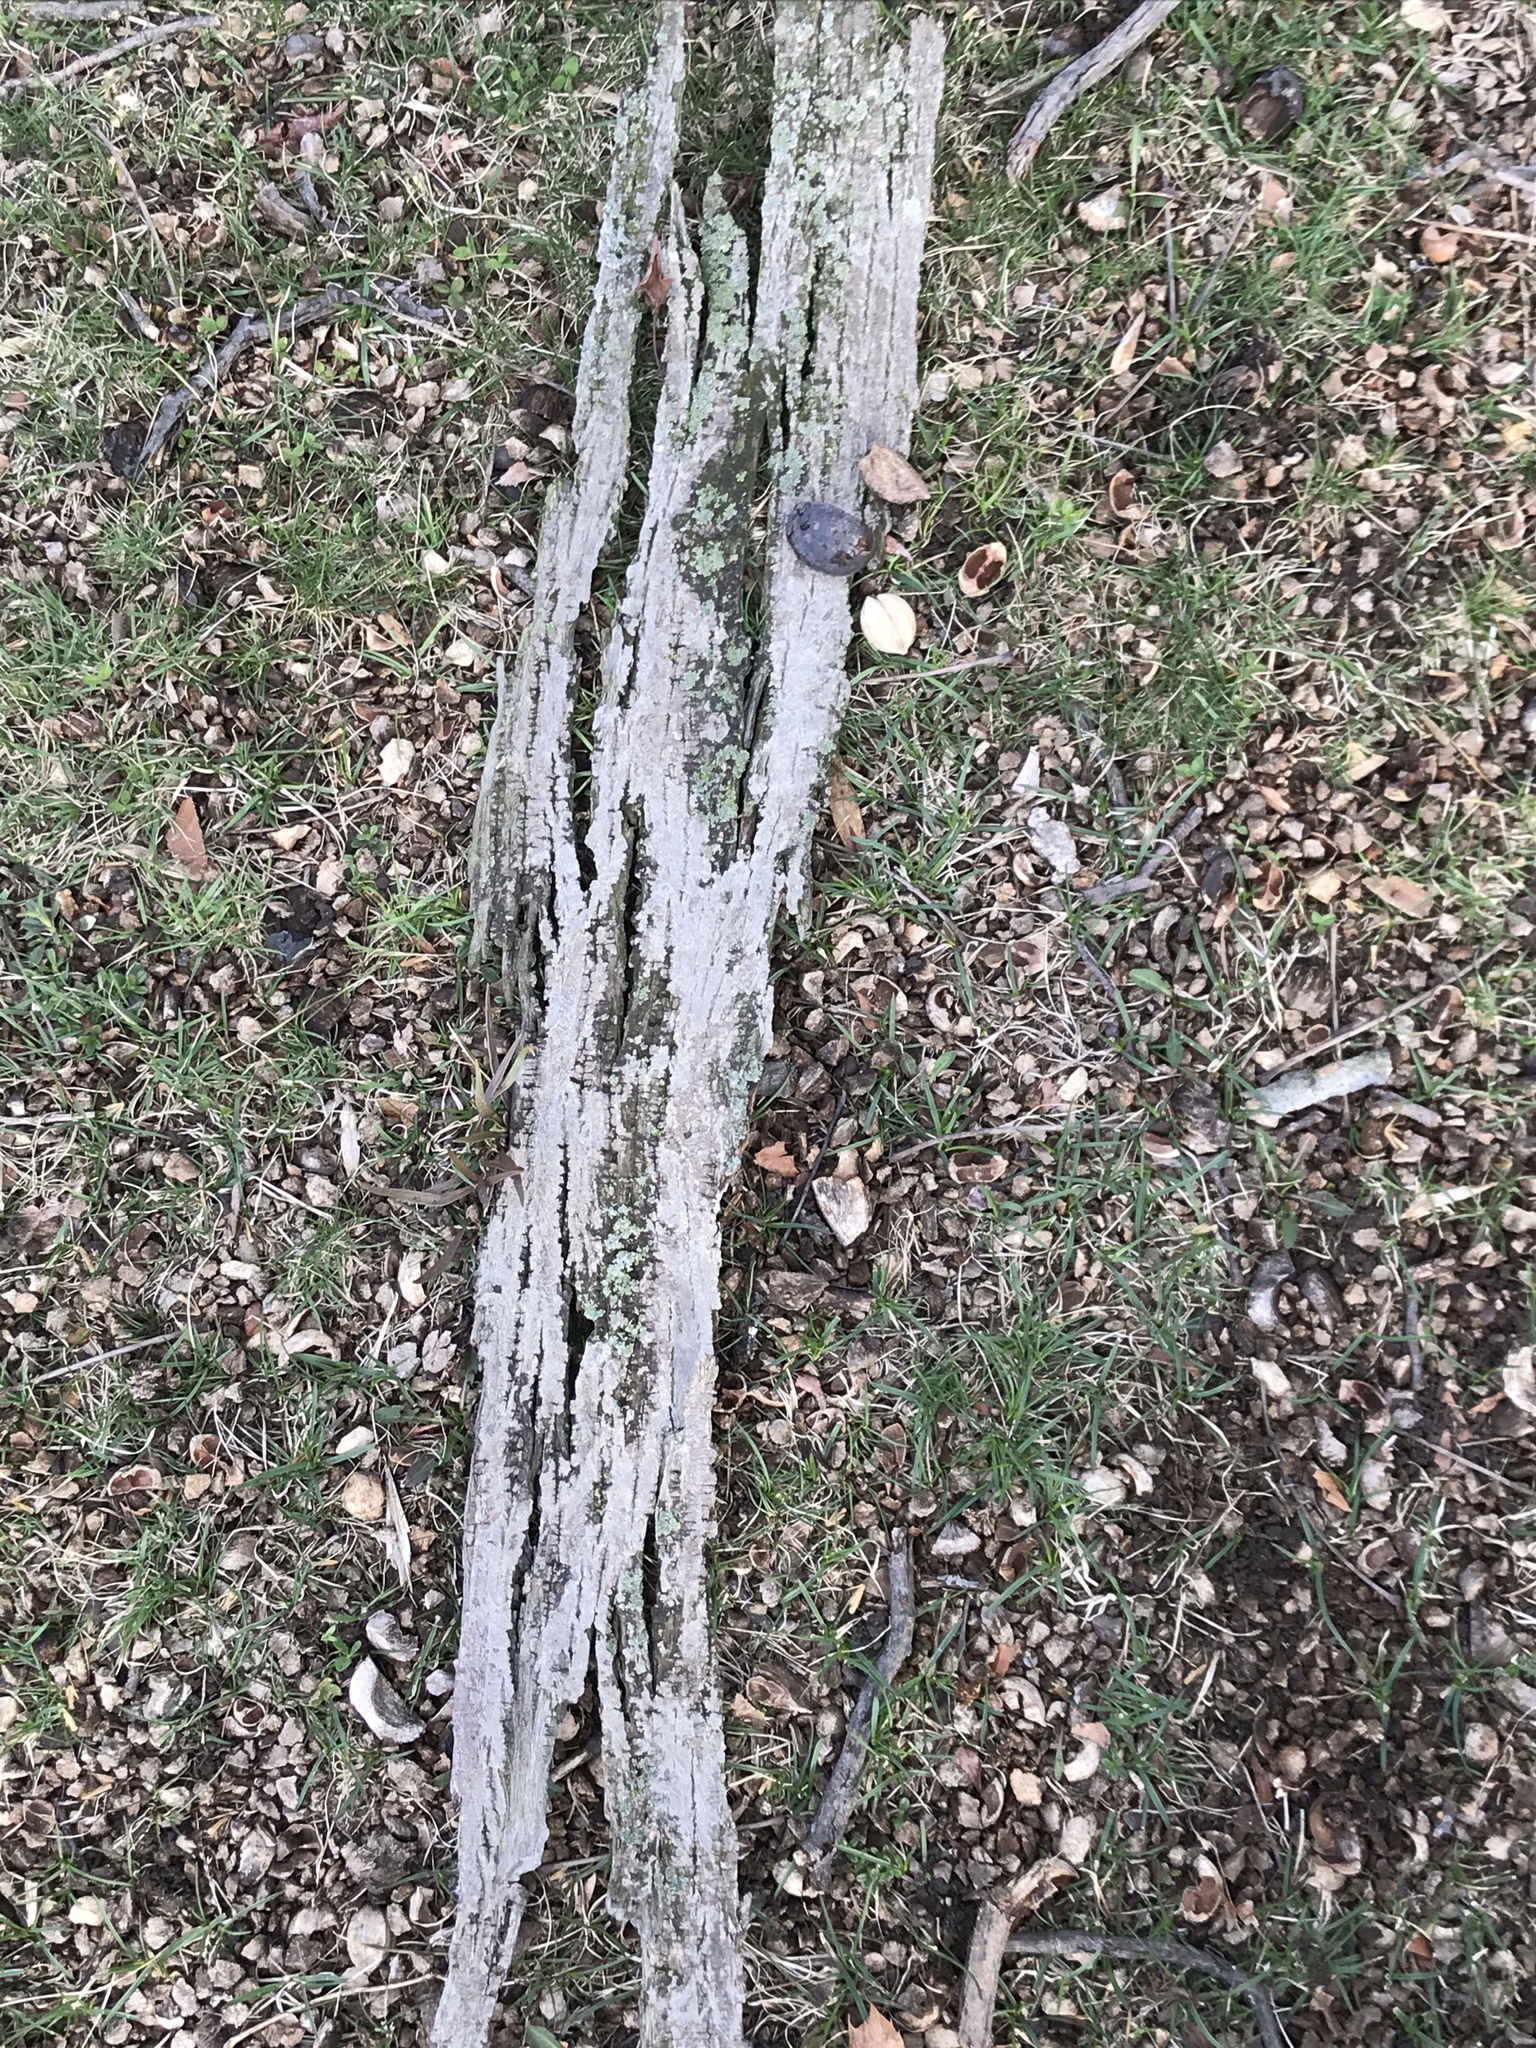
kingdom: Plantae
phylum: Tracheophyta
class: Magnoliopsida
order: Fagales
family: Juglandaceae
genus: Carya
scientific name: Carya ovata
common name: Shagbark hickory
